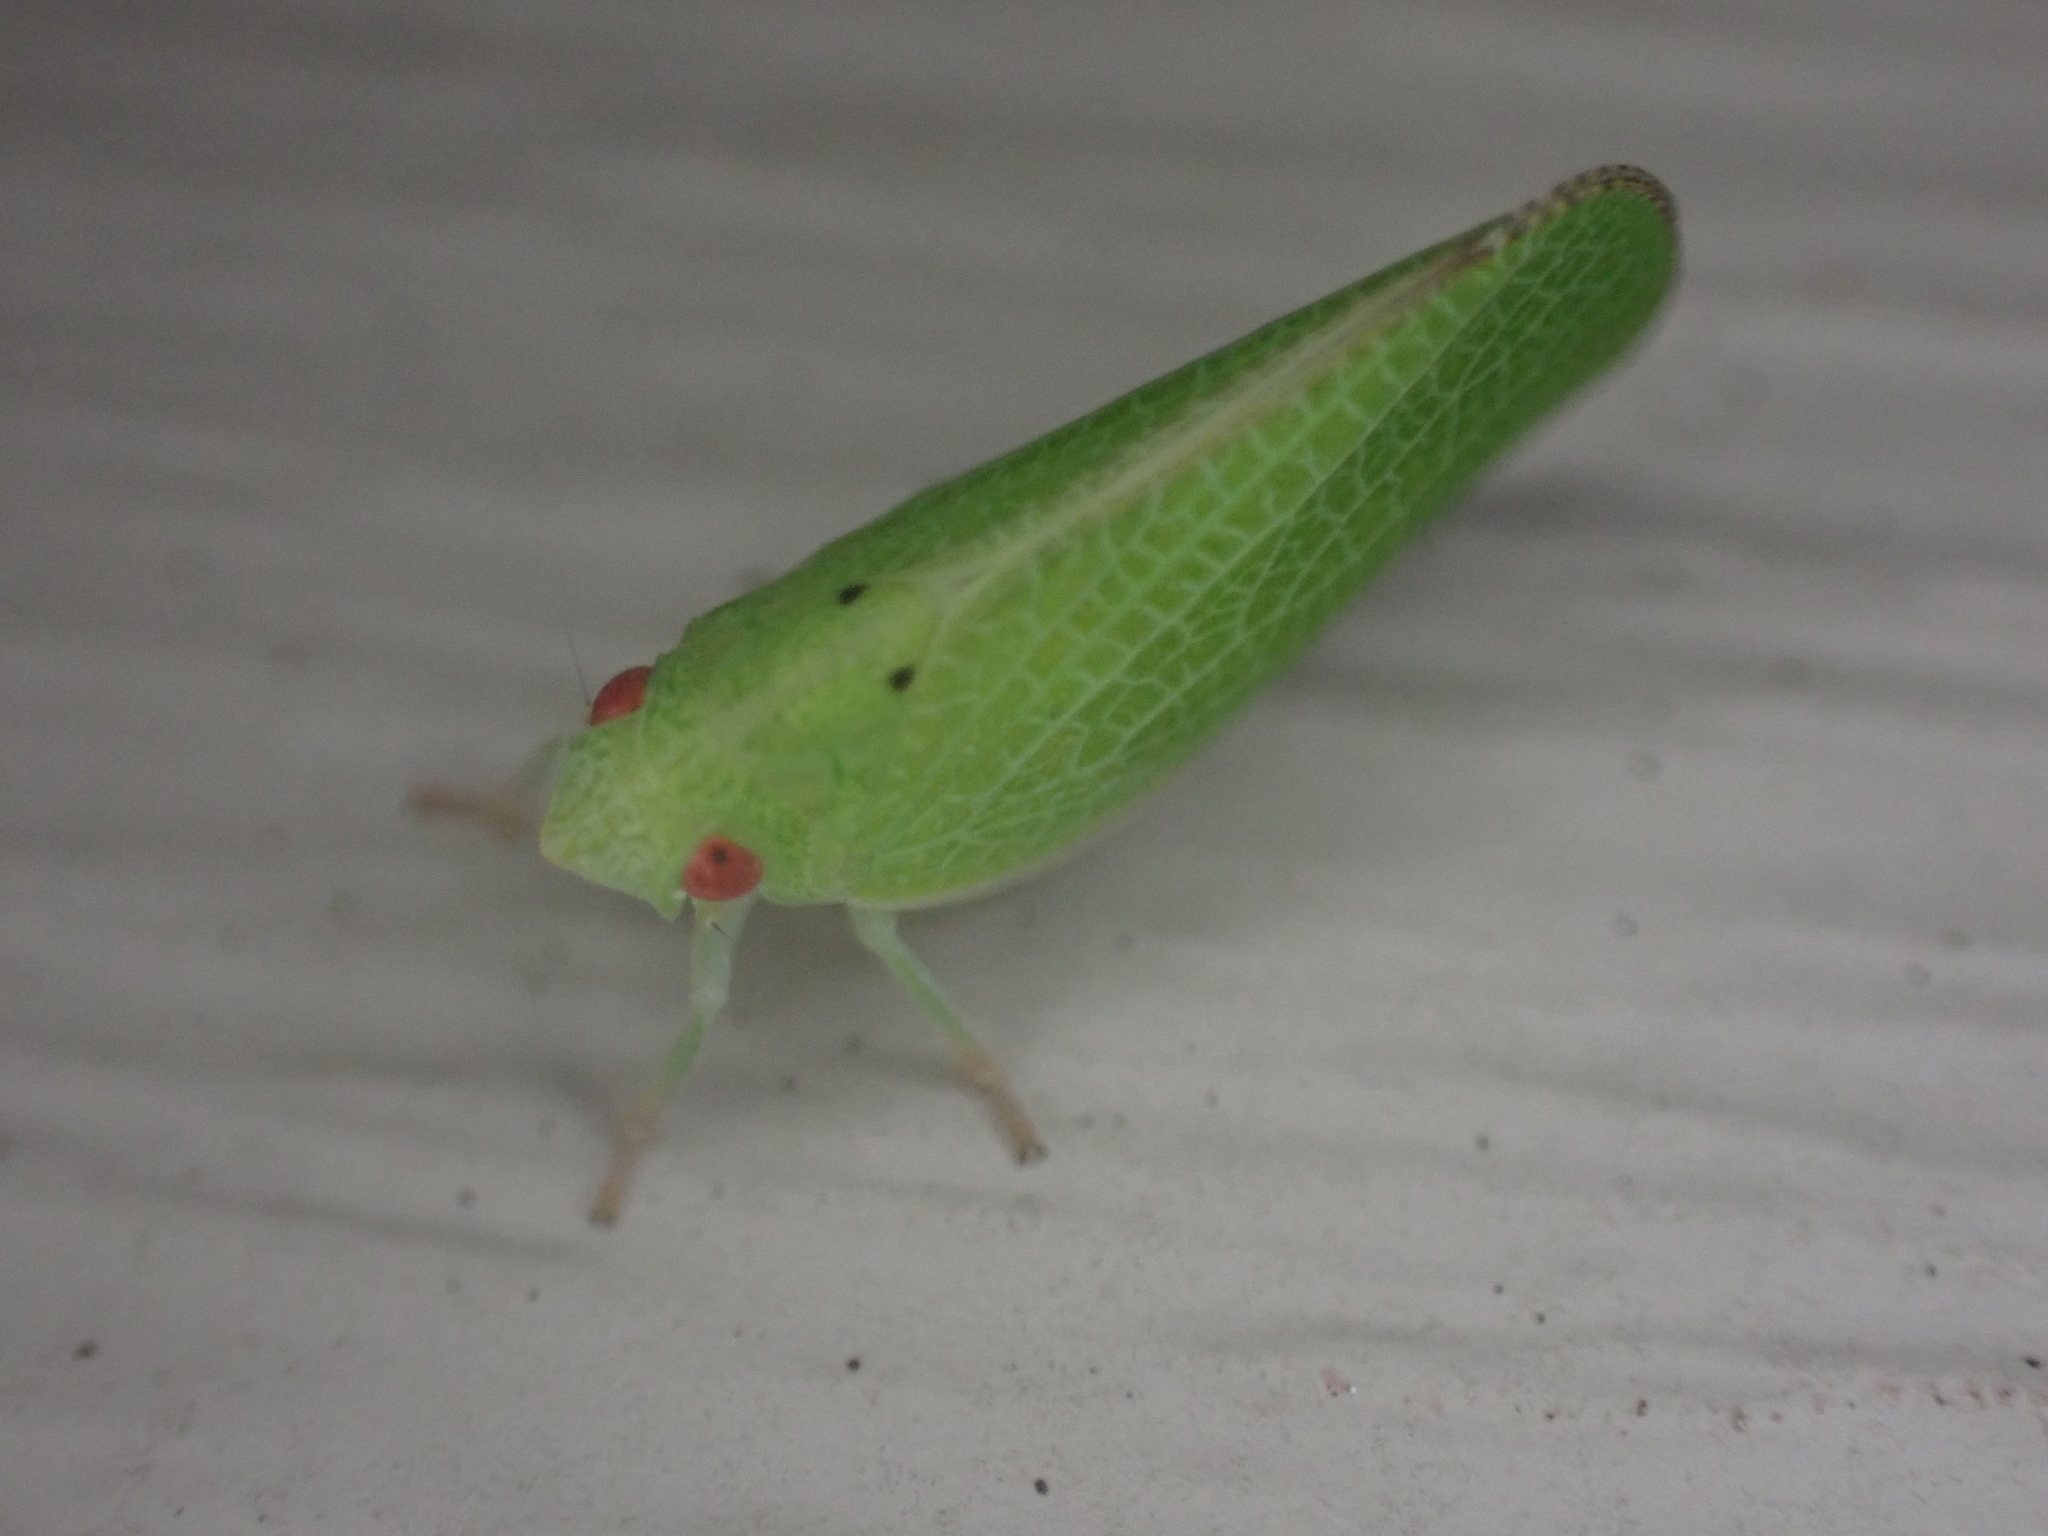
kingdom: Animalia
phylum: Arthropoda
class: Insecta
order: Hemiptera
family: Acanaloniidae
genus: Acanalonia
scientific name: Acanalonia conica
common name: Green cone-headed planthopper
